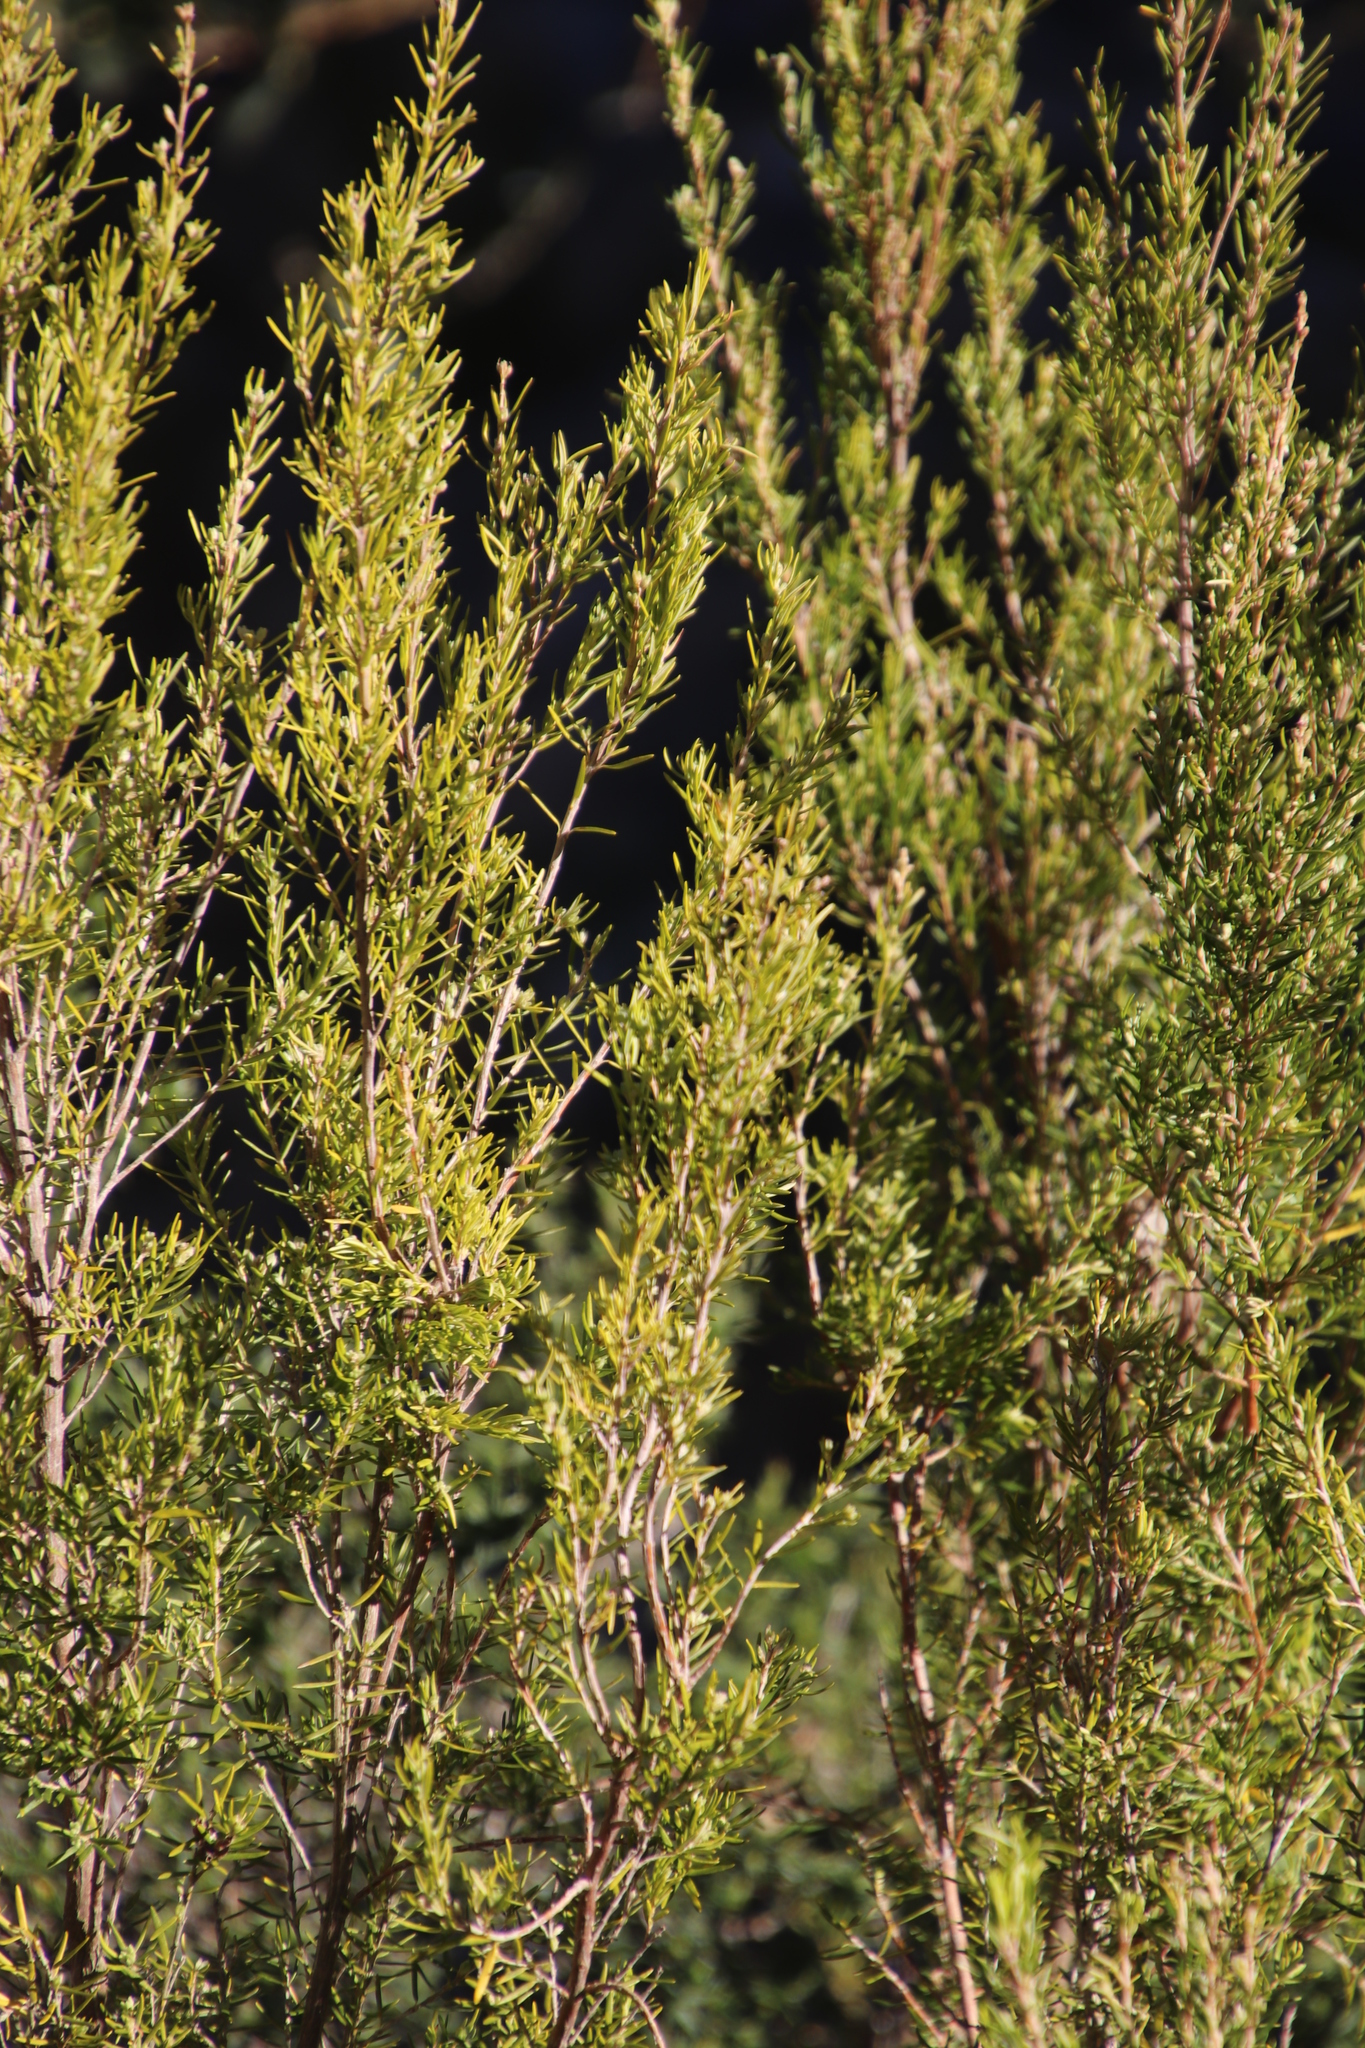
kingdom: Plantae
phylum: Tracheophyta
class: Magnoliopsida
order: Ericales
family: Ericaceae
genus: Erica
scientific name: Erica caffra
